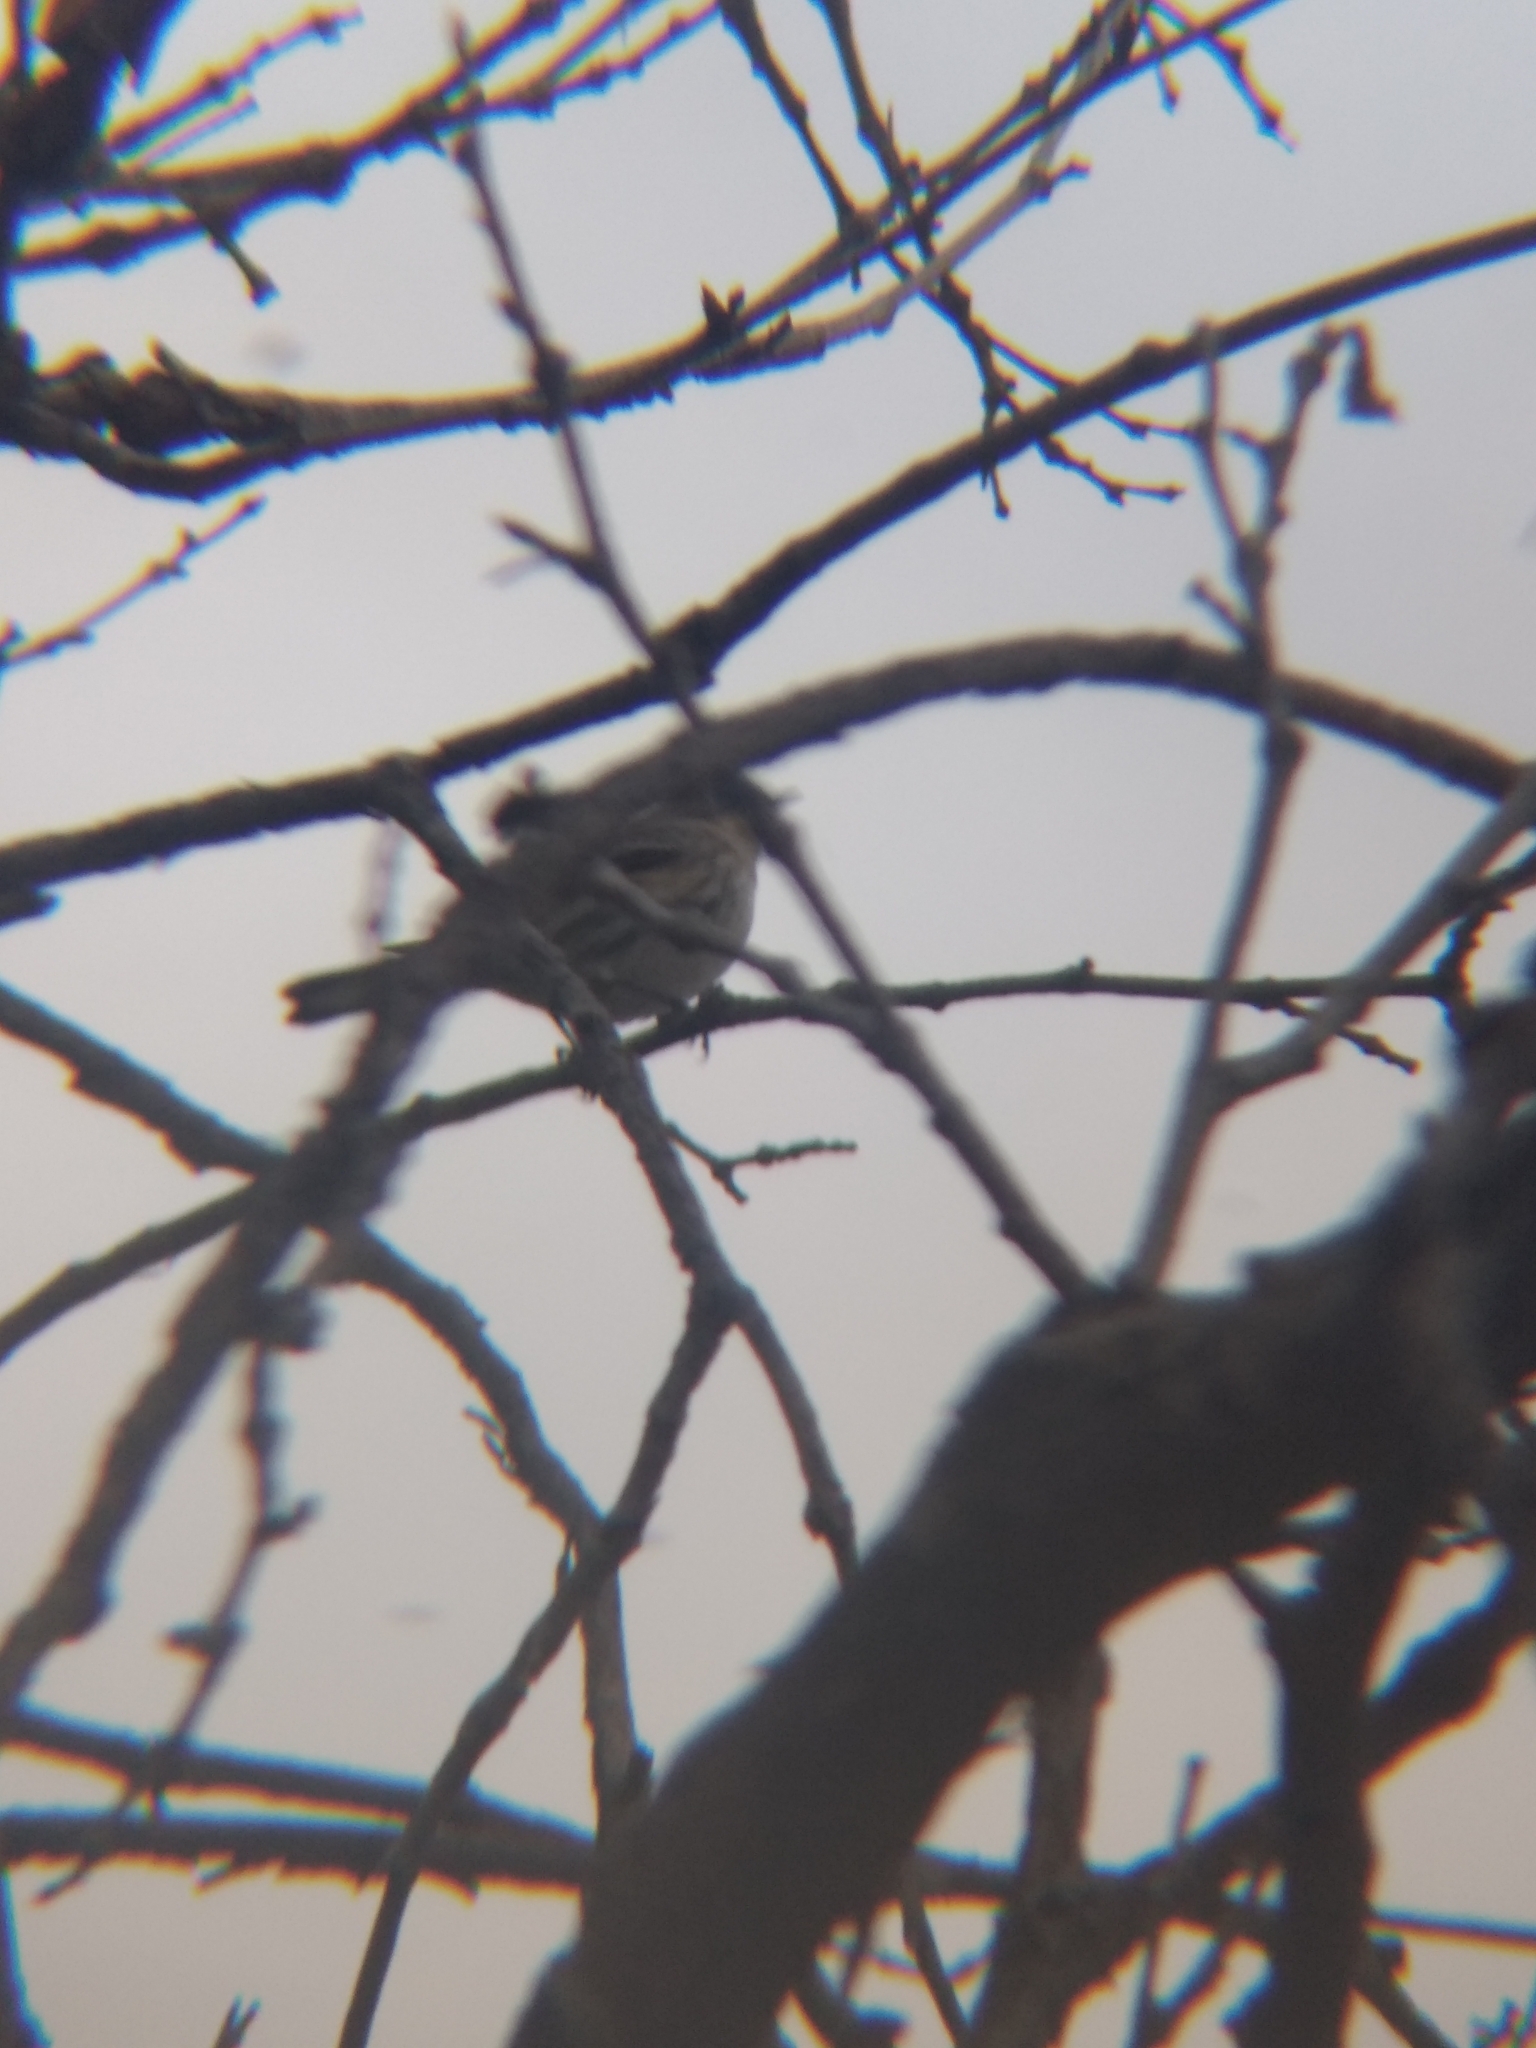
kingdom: Animalia
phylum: Chordata
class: Aves
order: Passeriformes
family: Parulidae
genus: Setophaga
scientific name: Setophaga coronata
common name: Myrtle warbler
